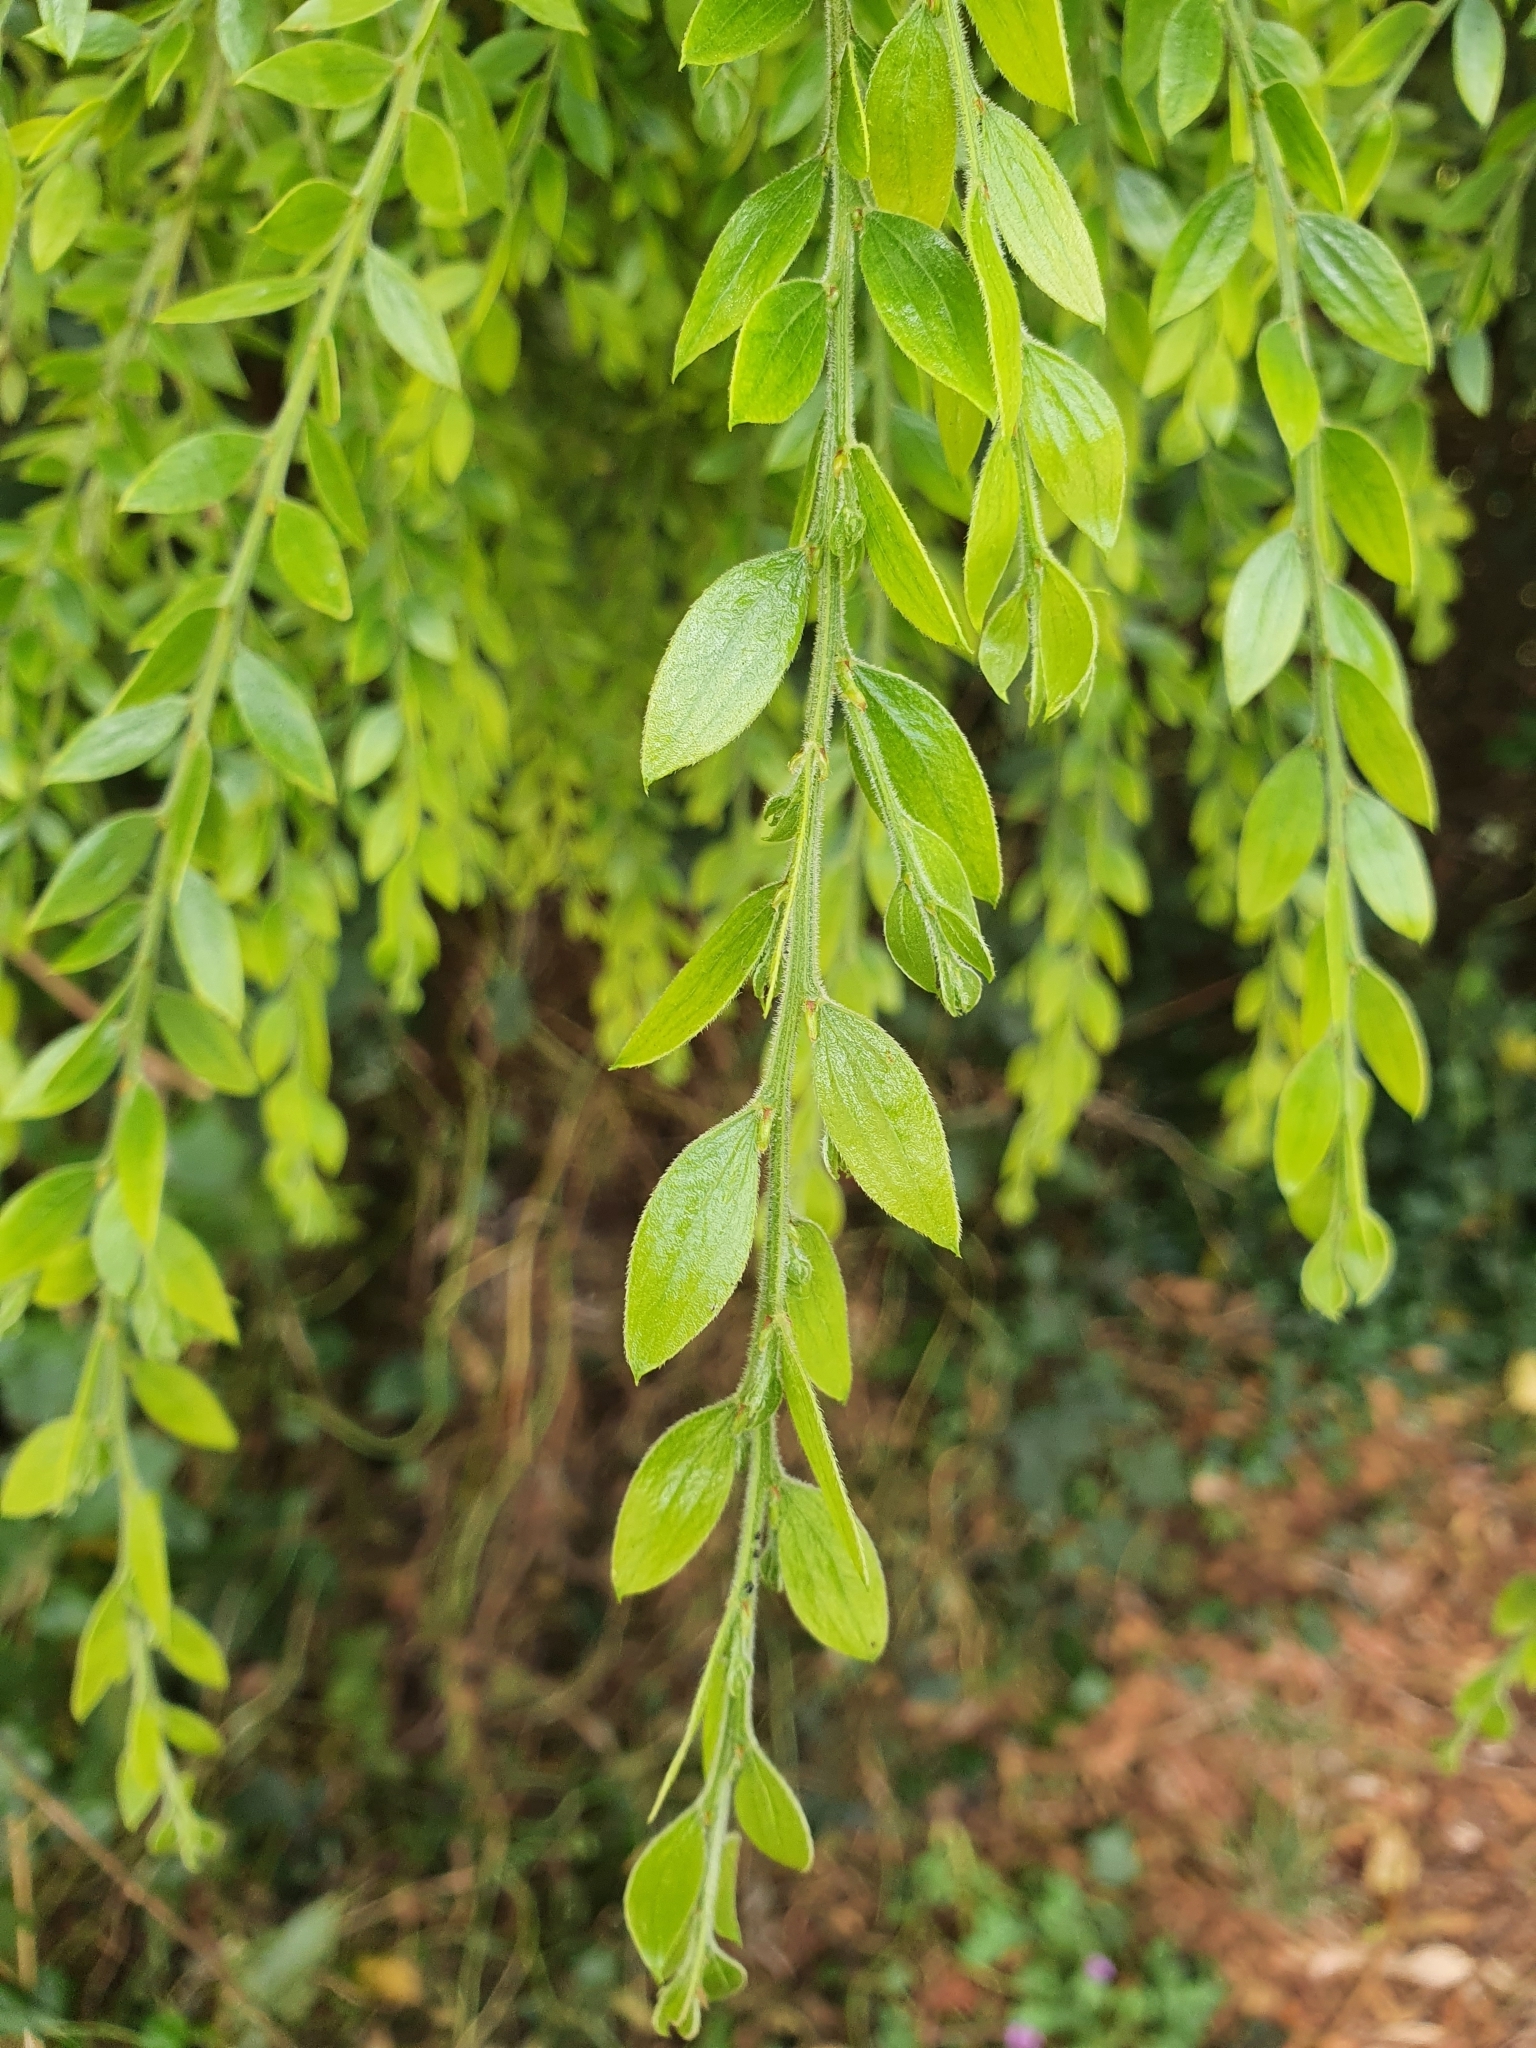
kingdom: Plantae
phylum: Tracheophyta
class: Magnoliopsida
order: Fabales
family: Fabaceae
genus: Acacia
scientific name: Acacia howittii
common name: Sticky wattle
